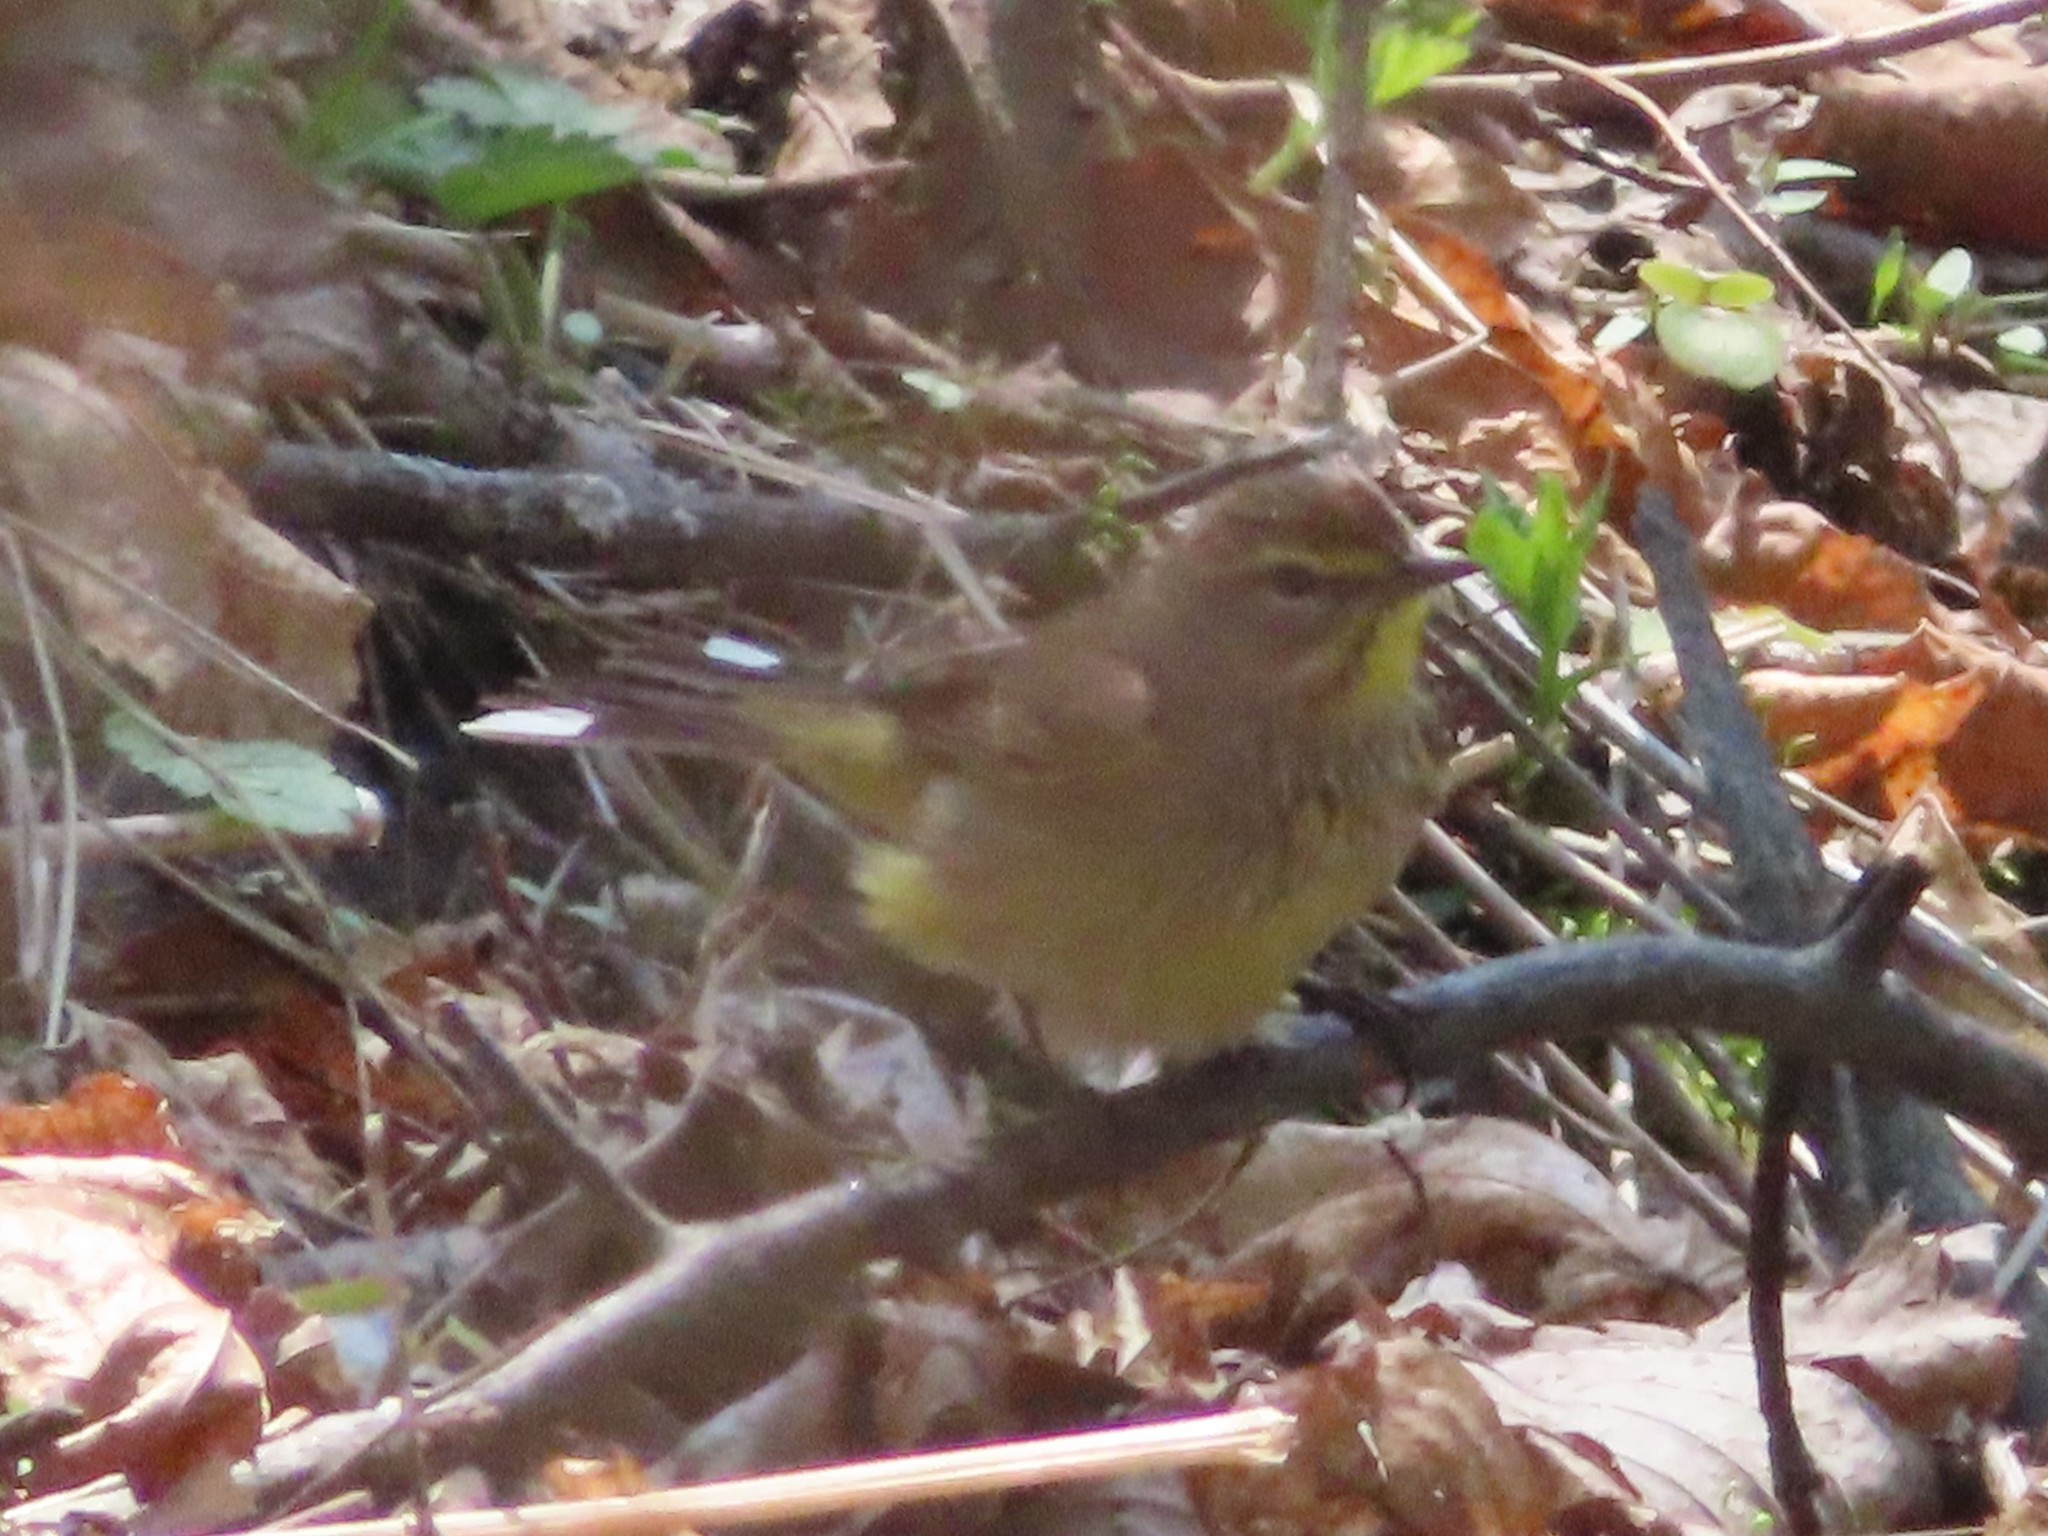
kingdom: Animalia
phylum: Chordata
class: Aves
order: Passeriformes
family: Parulidae
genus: Setophaga
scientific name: Setophaga palmarum
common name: Palm warbler
